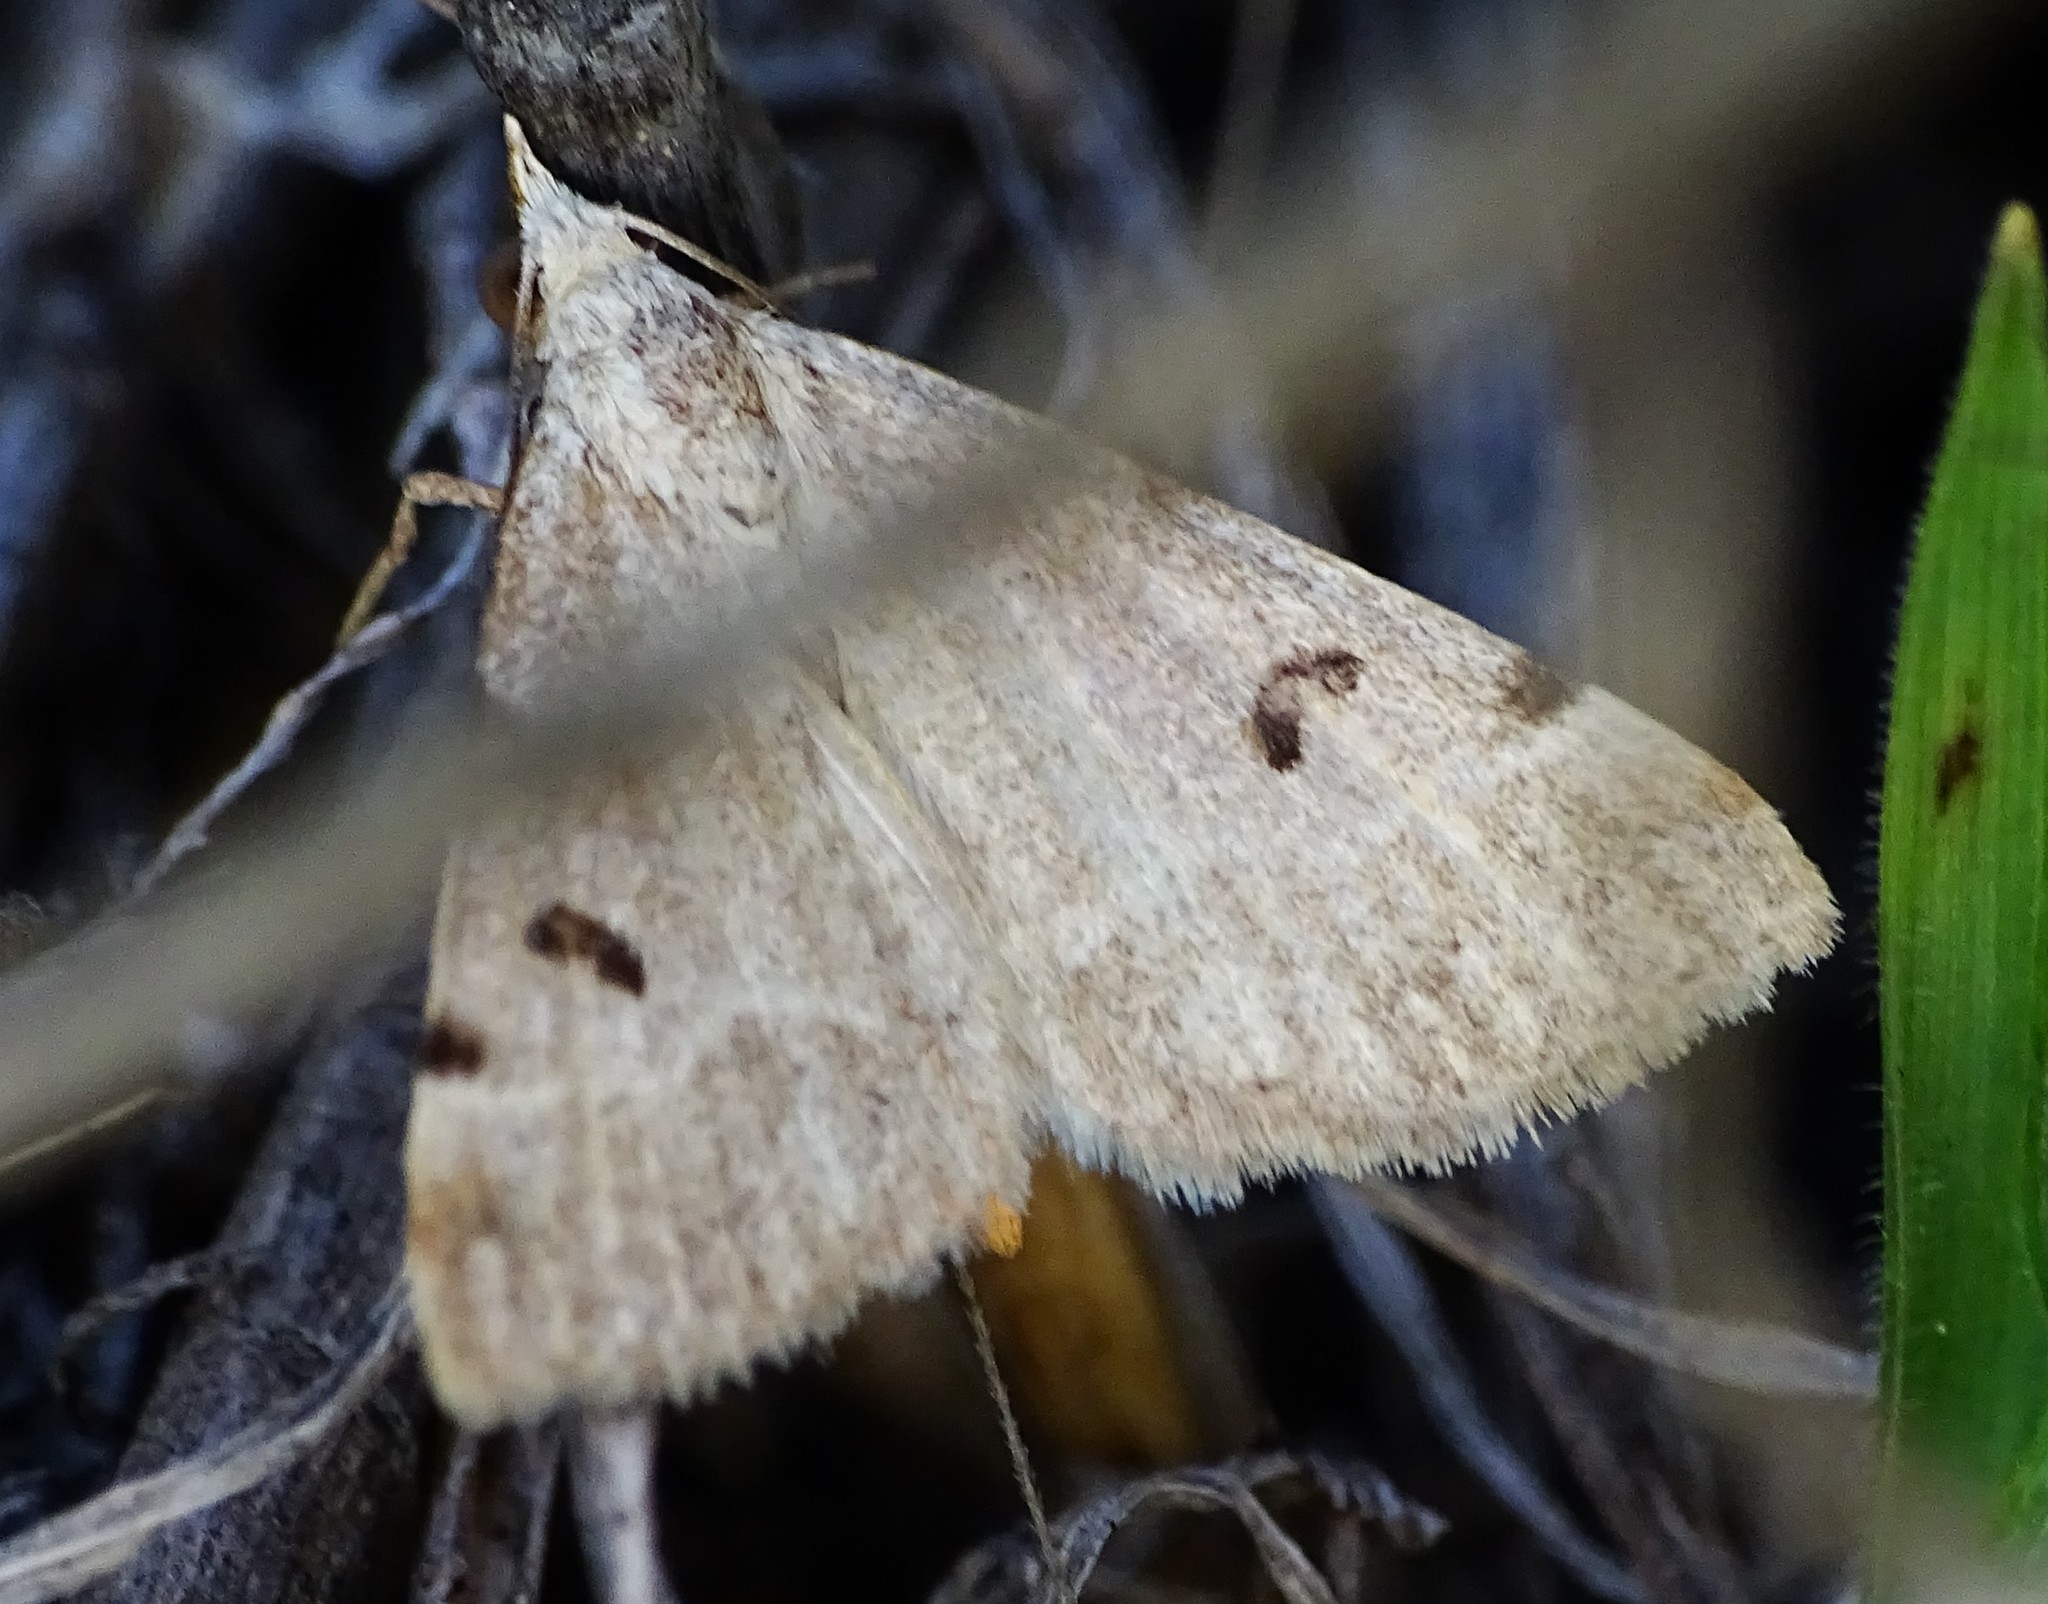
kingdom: Animalia
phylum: Arthropoda
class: Insecta
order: Lepidoptera
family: Erebidae
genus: Hemeroplanis
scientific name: Hemeroplanis historialis
